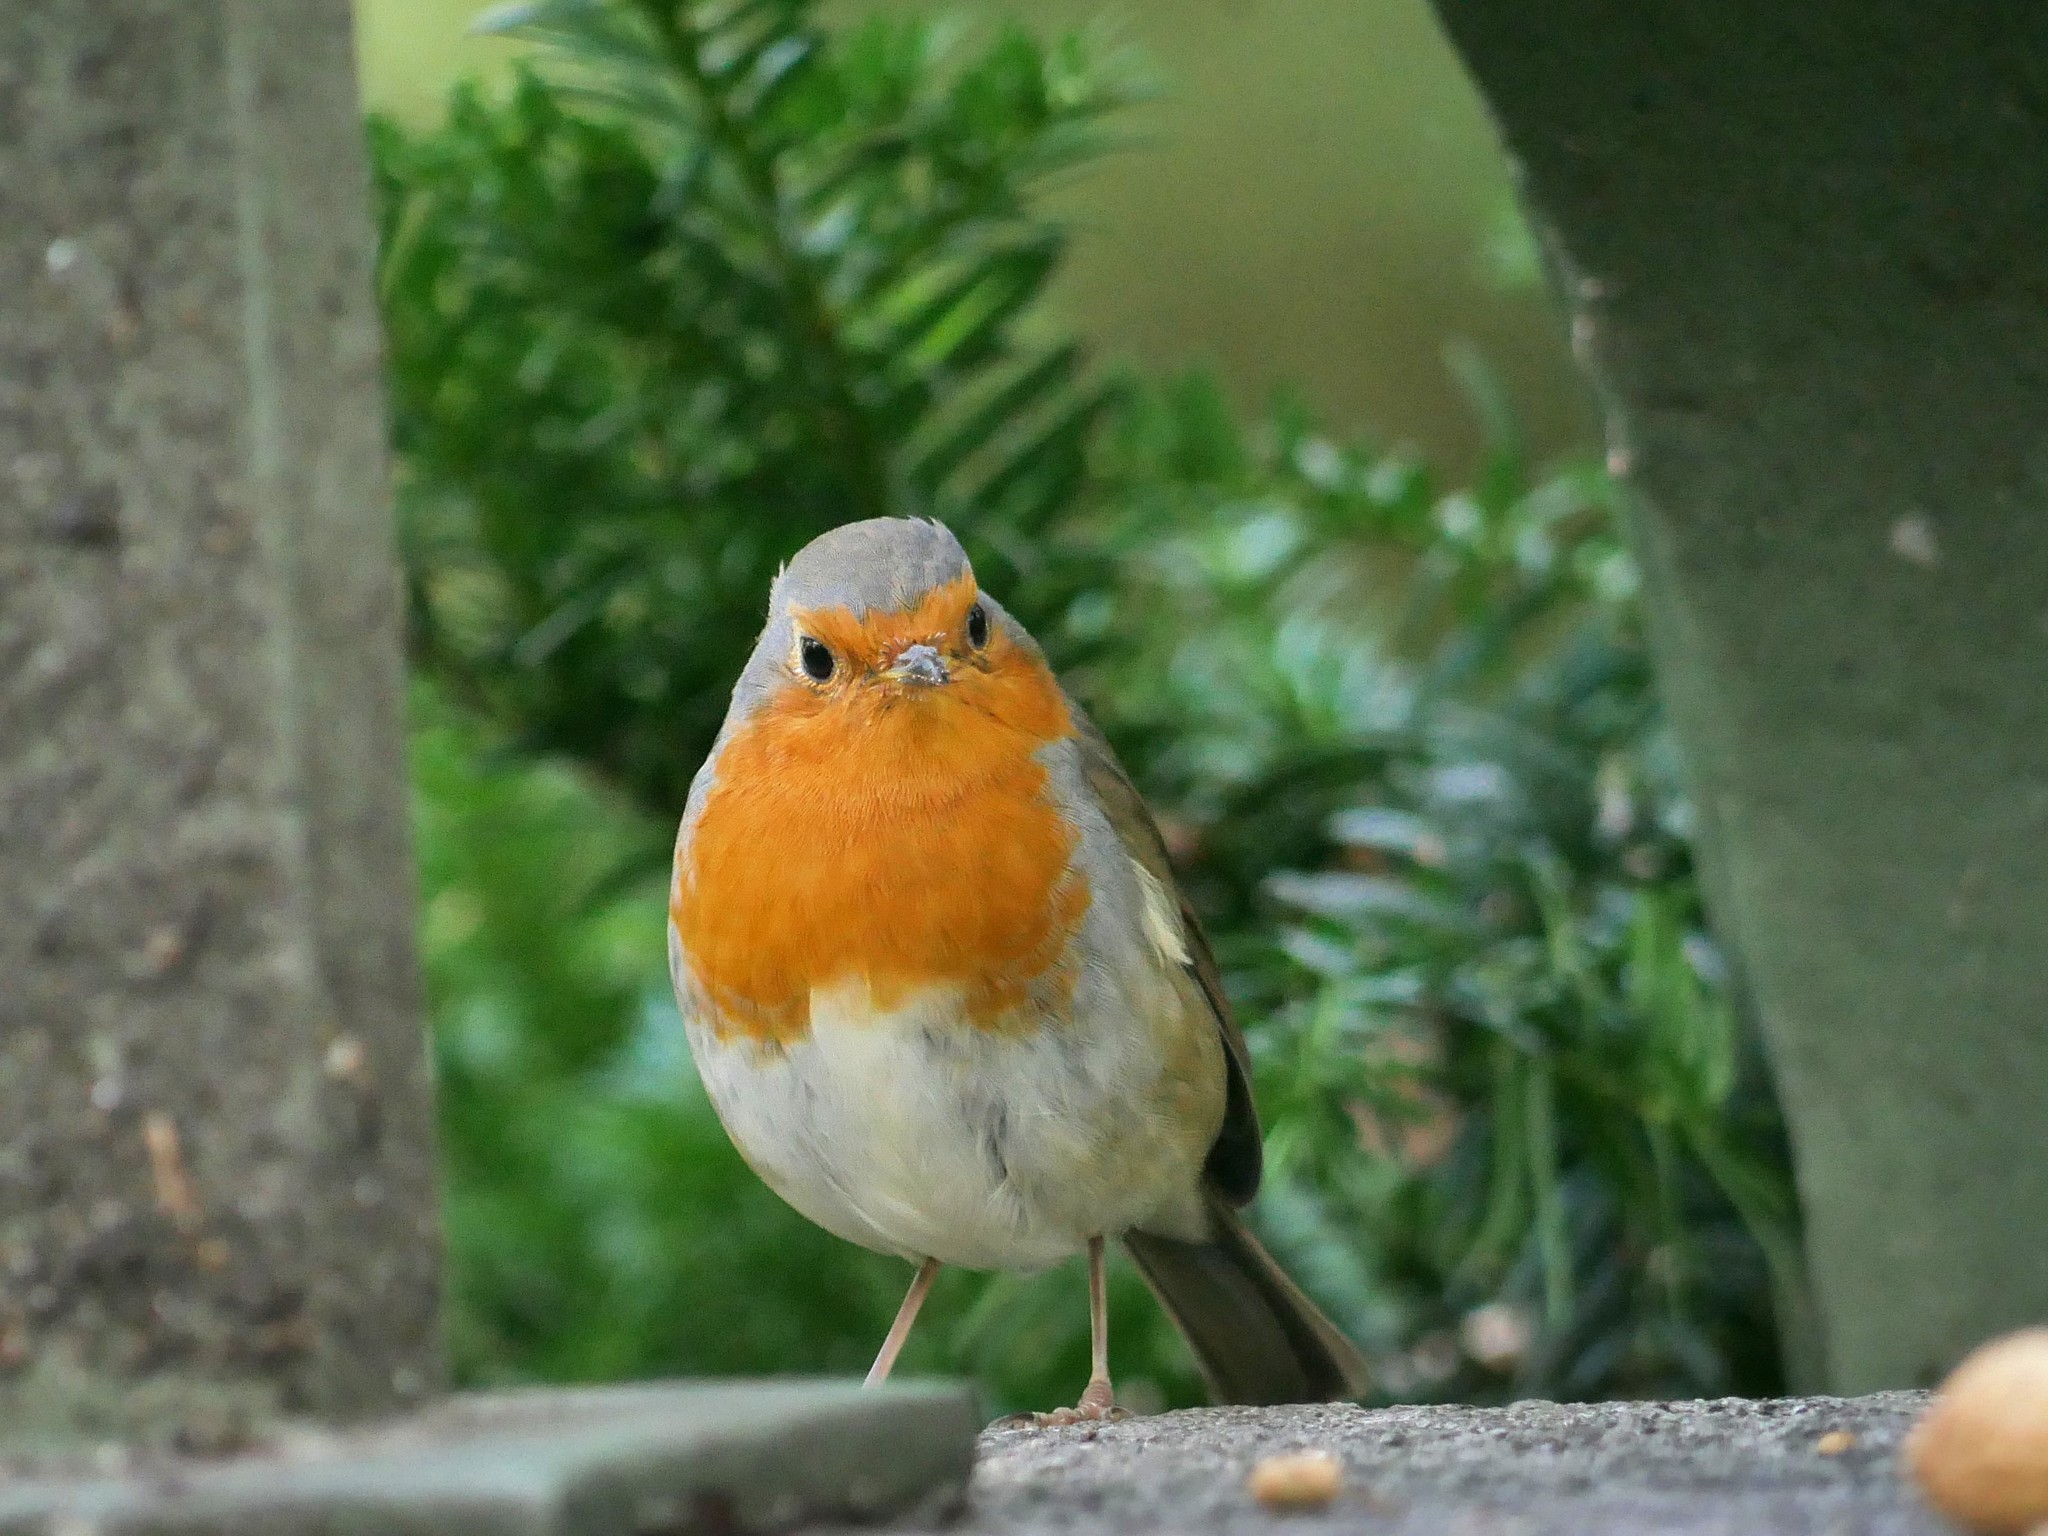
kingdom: Animalia
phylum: Chordata
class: Aves
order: Passeriformes
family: Muscicapidae
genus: Erithacus
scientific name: Erithacus rubecula
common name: European robin
